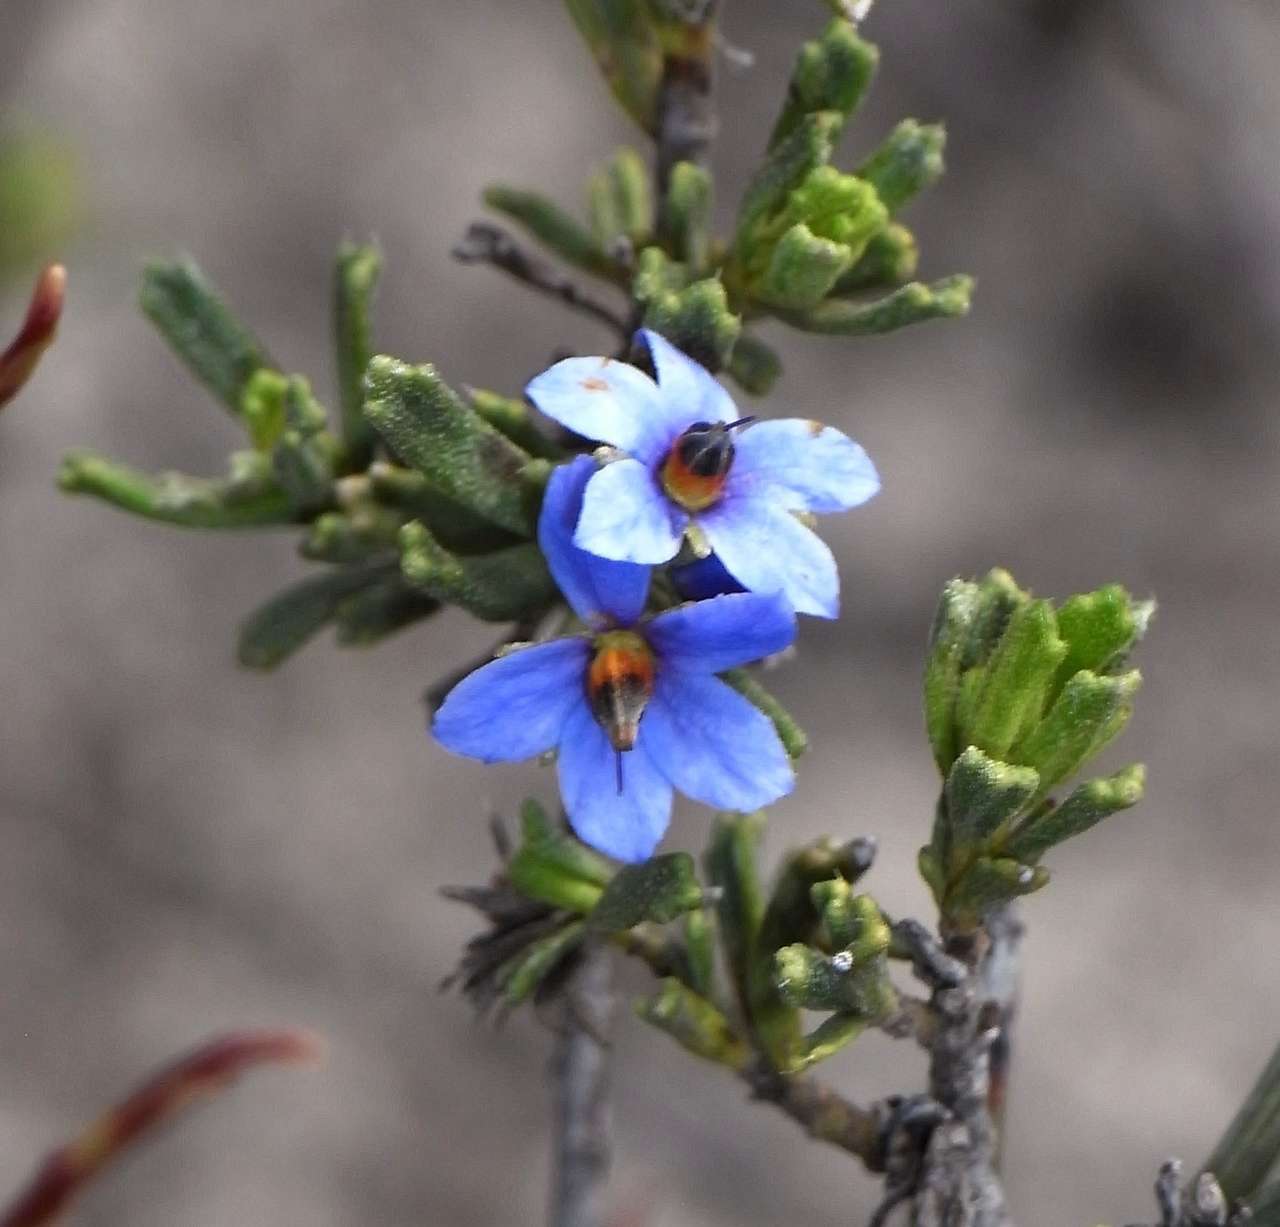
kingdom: Plantae
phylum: Tracheophyta
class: Magnoliopsida
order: Boraginales
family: Ehretiaceae
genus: Halgania
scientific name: Halgania cyanea
